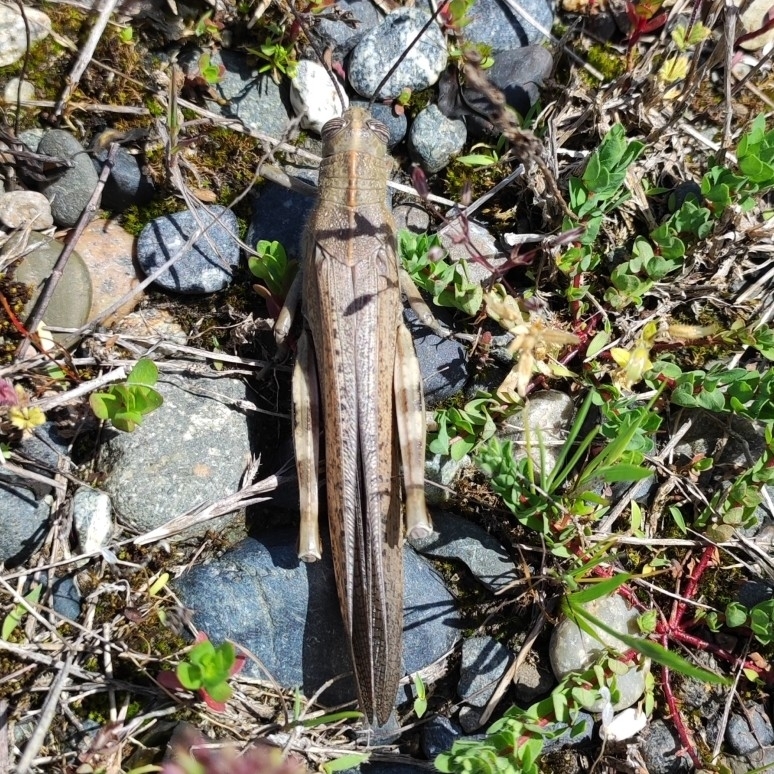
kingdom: Animalia
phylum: Arthropoda
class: Insecta
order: Orthoptera
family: Acrididae
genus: Anacridium
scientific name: Anacridium aegyptium
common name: Egyptian grasshopper
